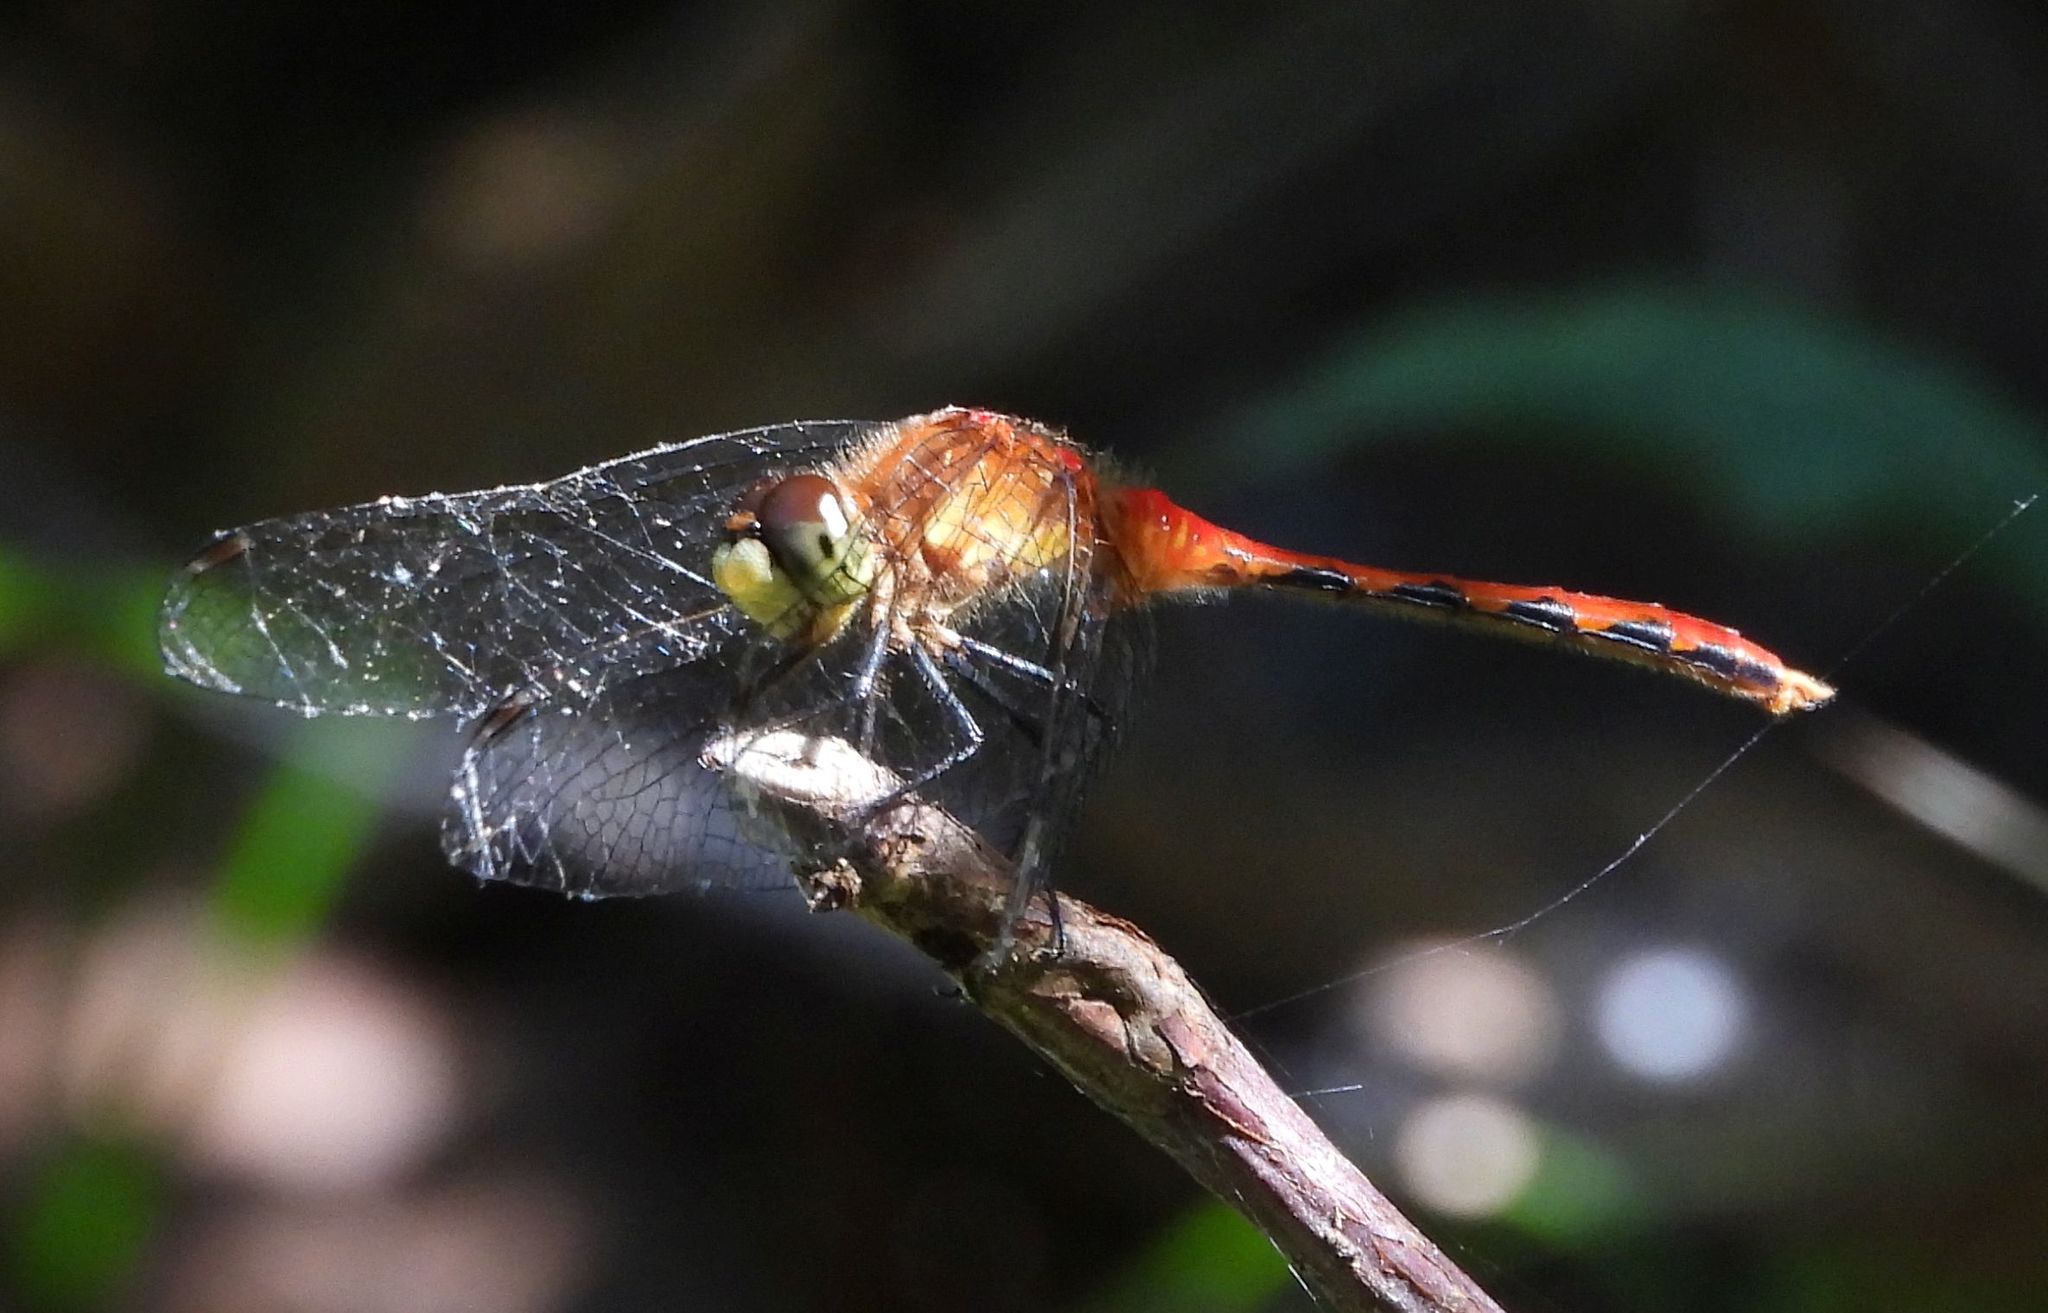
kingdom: Animalia
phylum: Arthropoda
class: Insecta
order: Odonata
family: Libellulidae
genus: Sympetrum
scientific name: Sympetrum obtrusum
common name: White-faced meadowhawk
